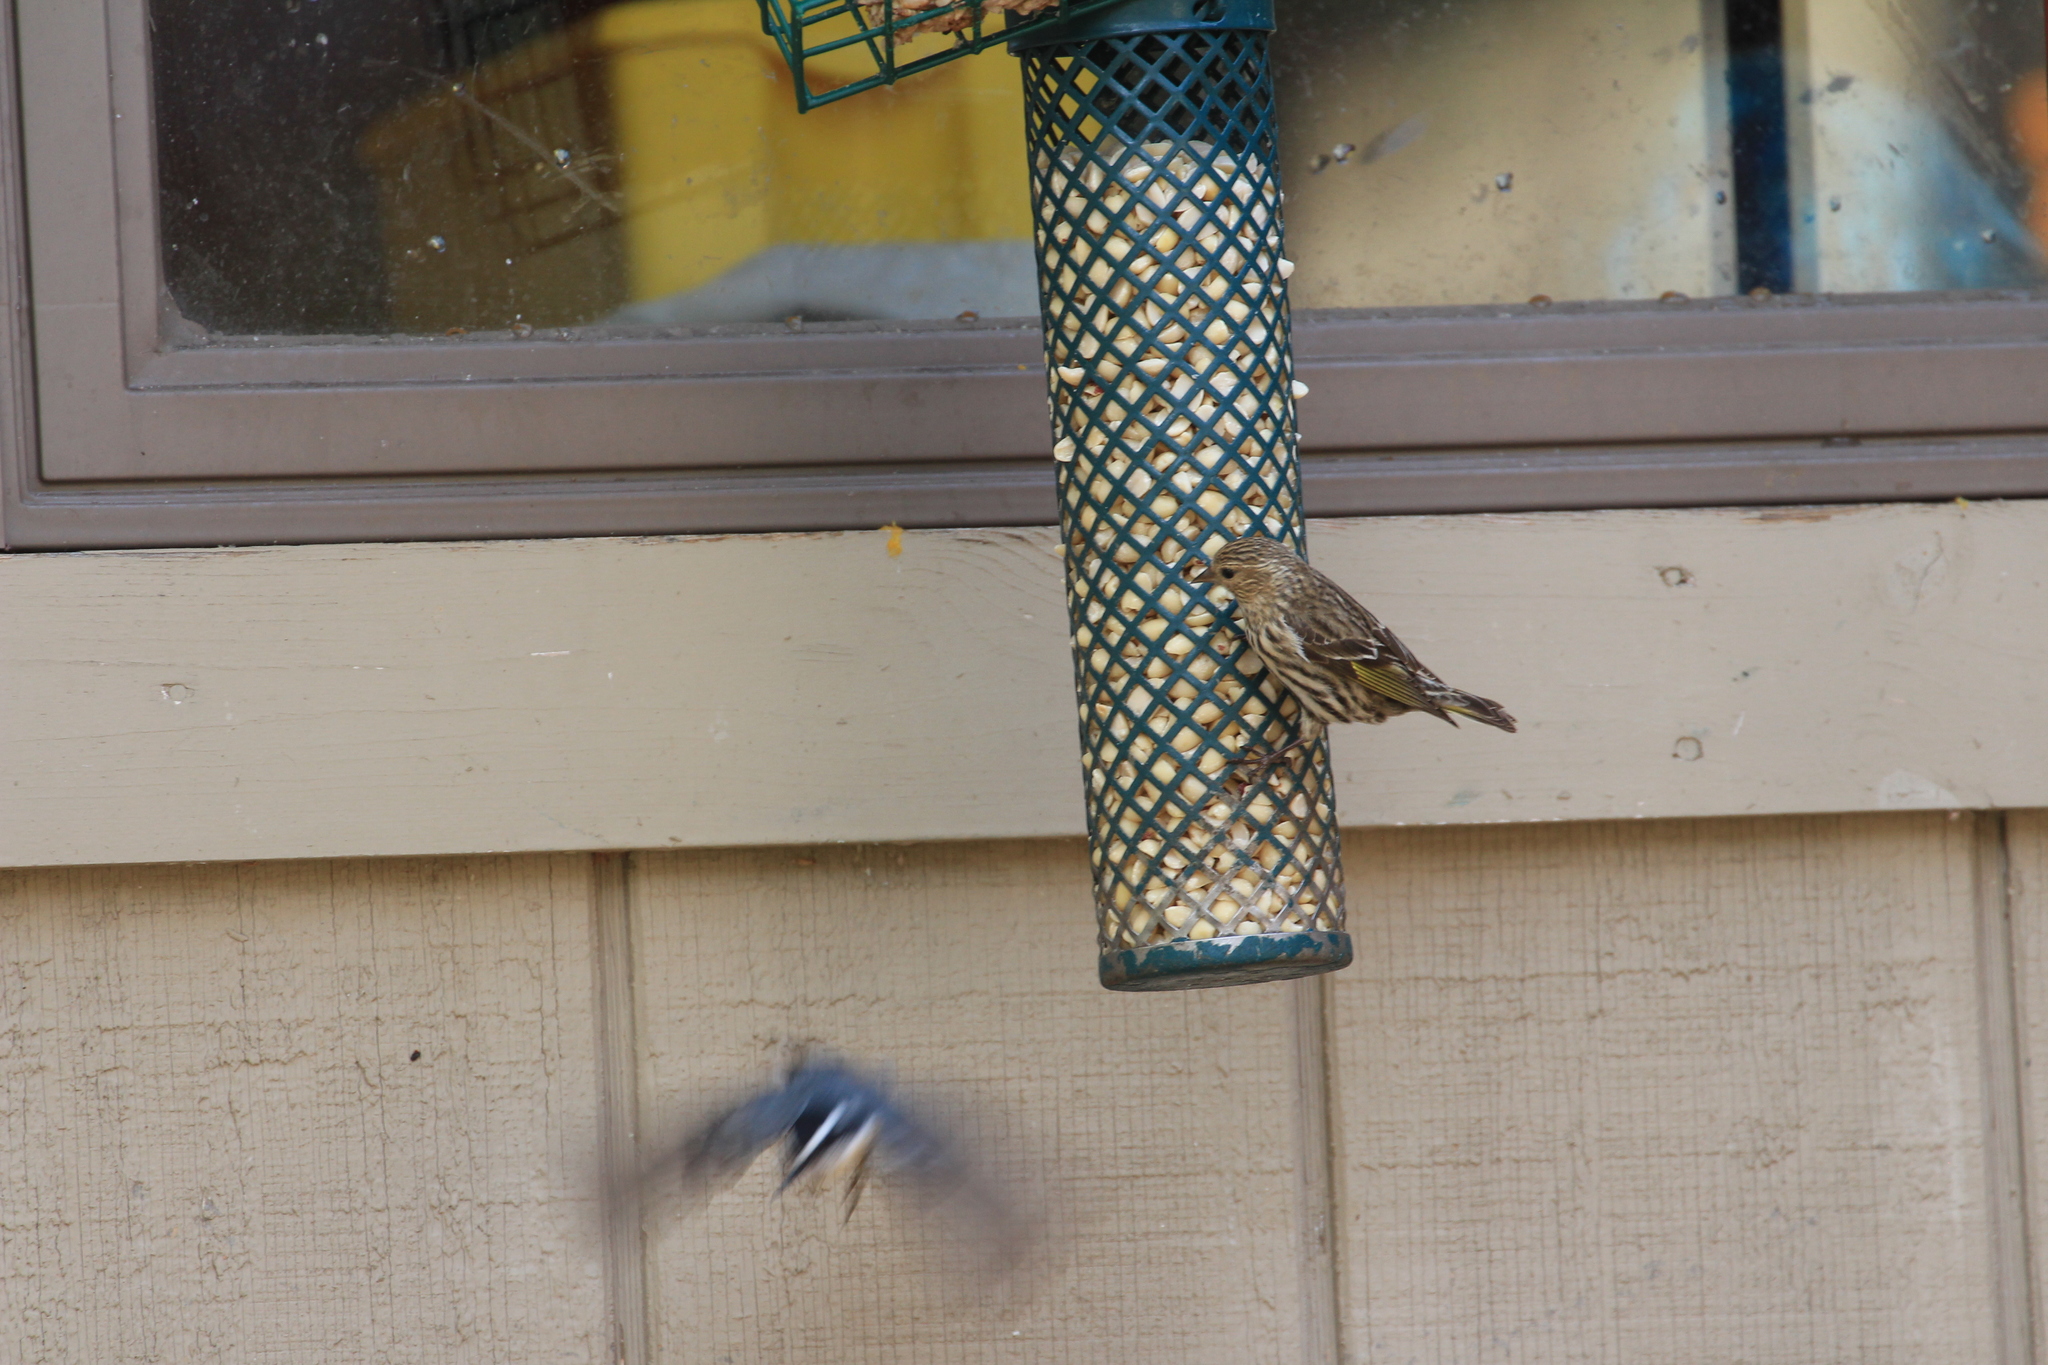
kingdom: Animalia
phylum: Chordata
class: Aves
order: Passeriformes
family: Fringillidae
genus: Spinus
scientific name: Spinus pinus
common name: Pine siskin
